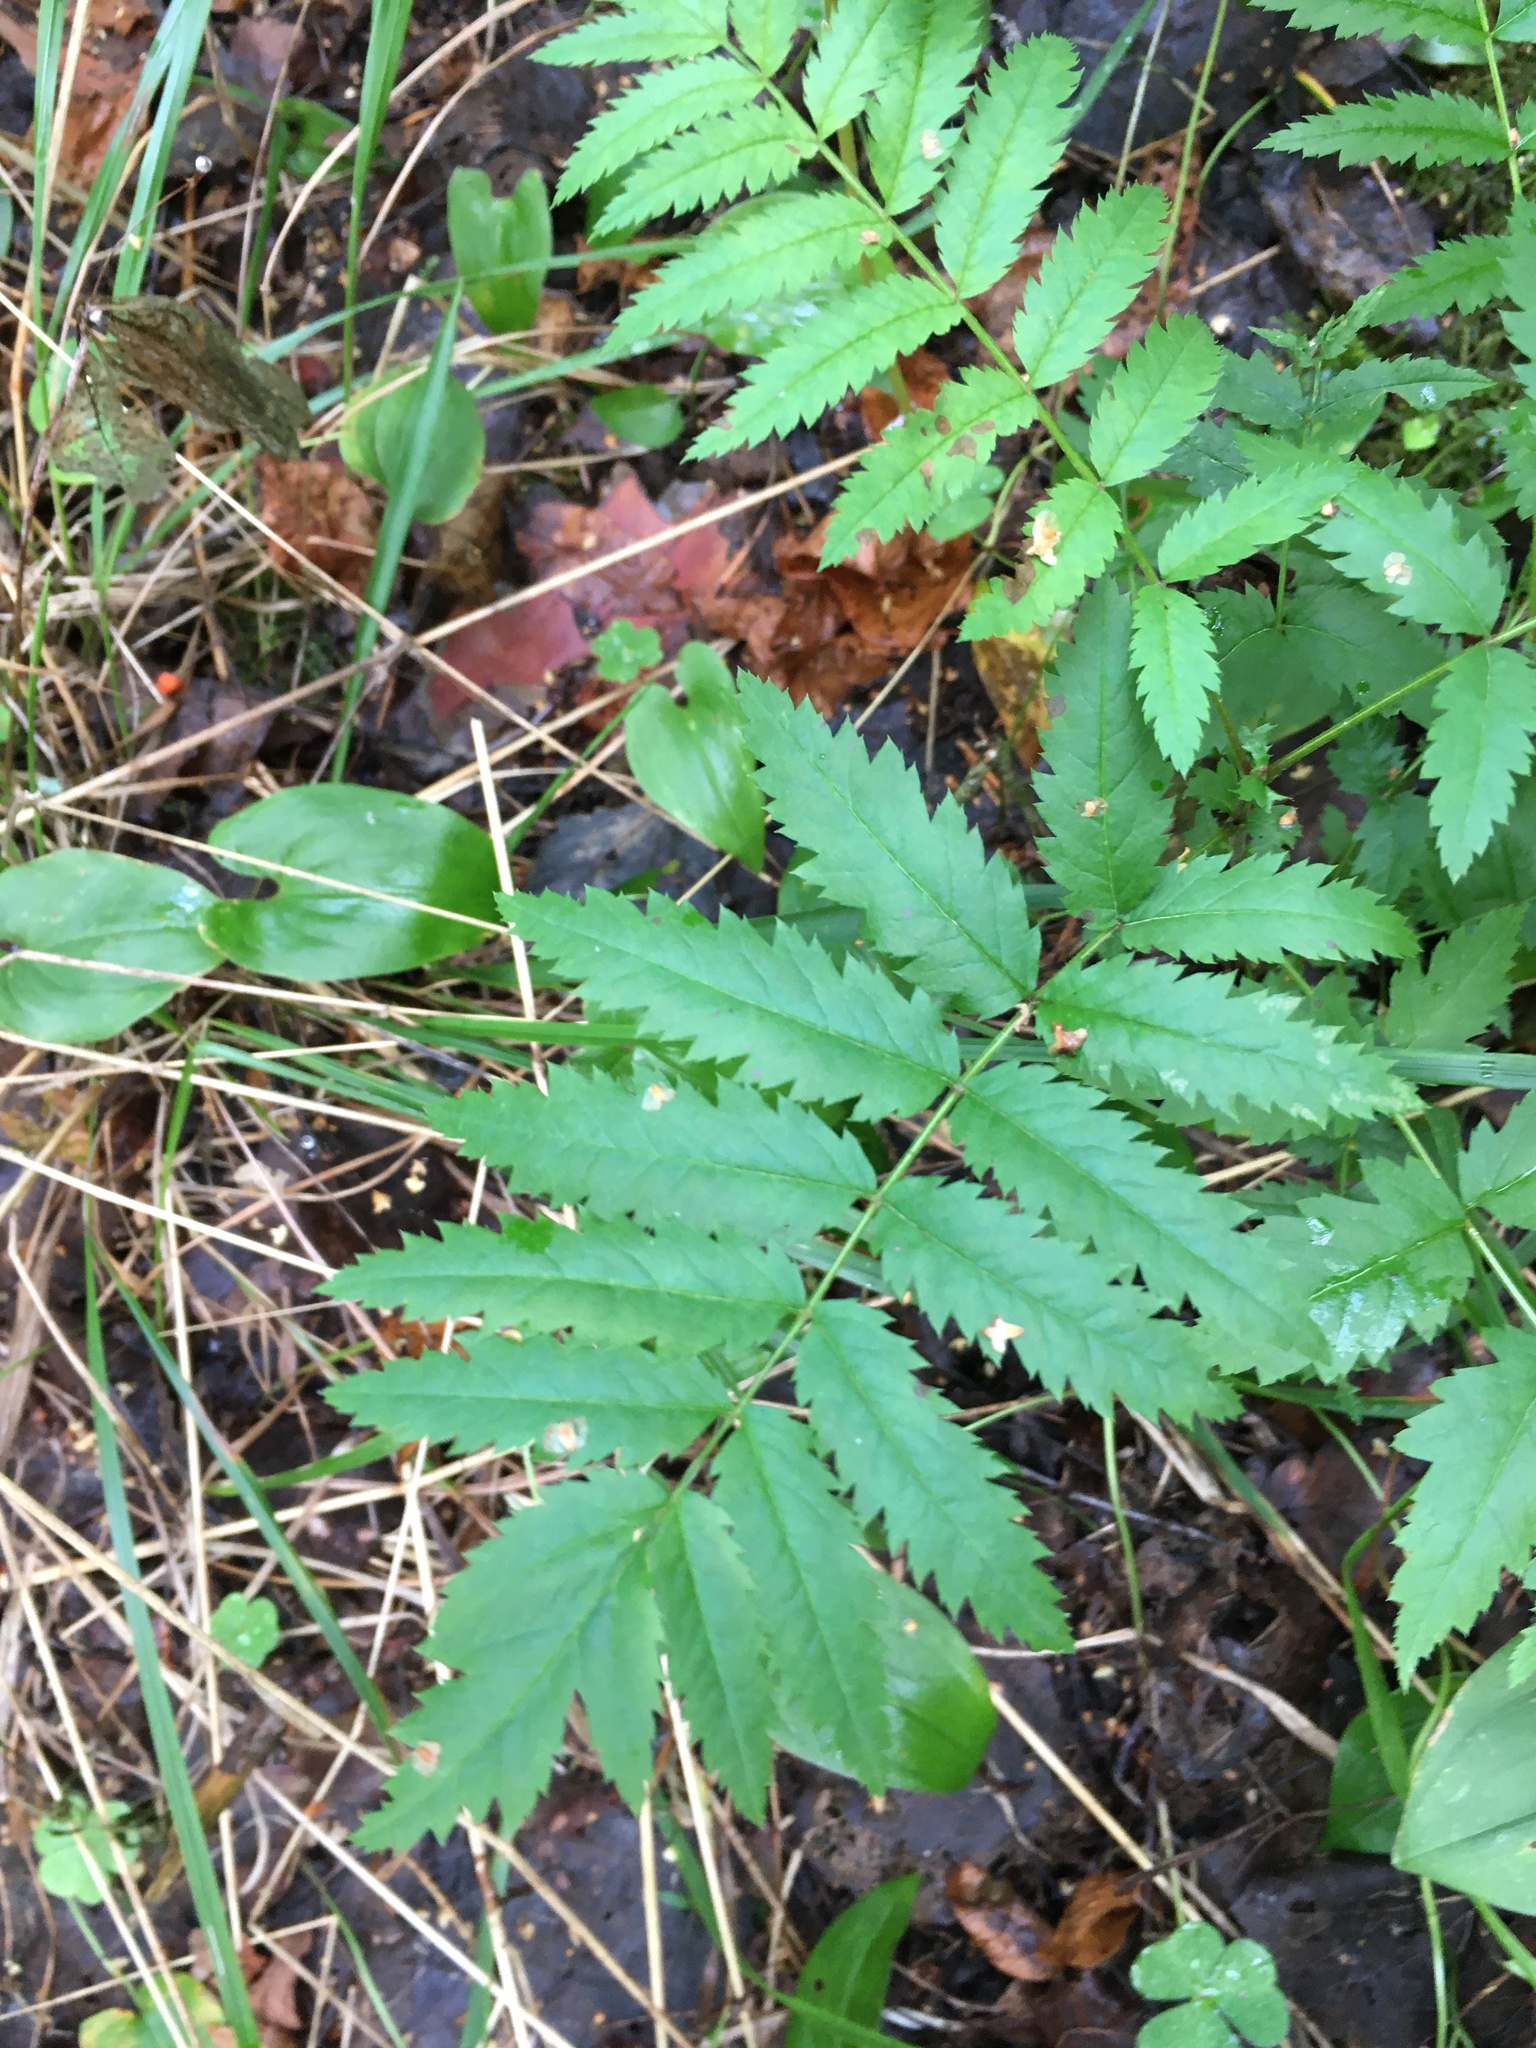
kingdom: Plantae
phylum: Tracheophyta
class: Magnoliopsida
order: Rosales
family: Rosaceae
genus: Sorbus
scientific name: Sorbus aucuparia
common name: Rowan
